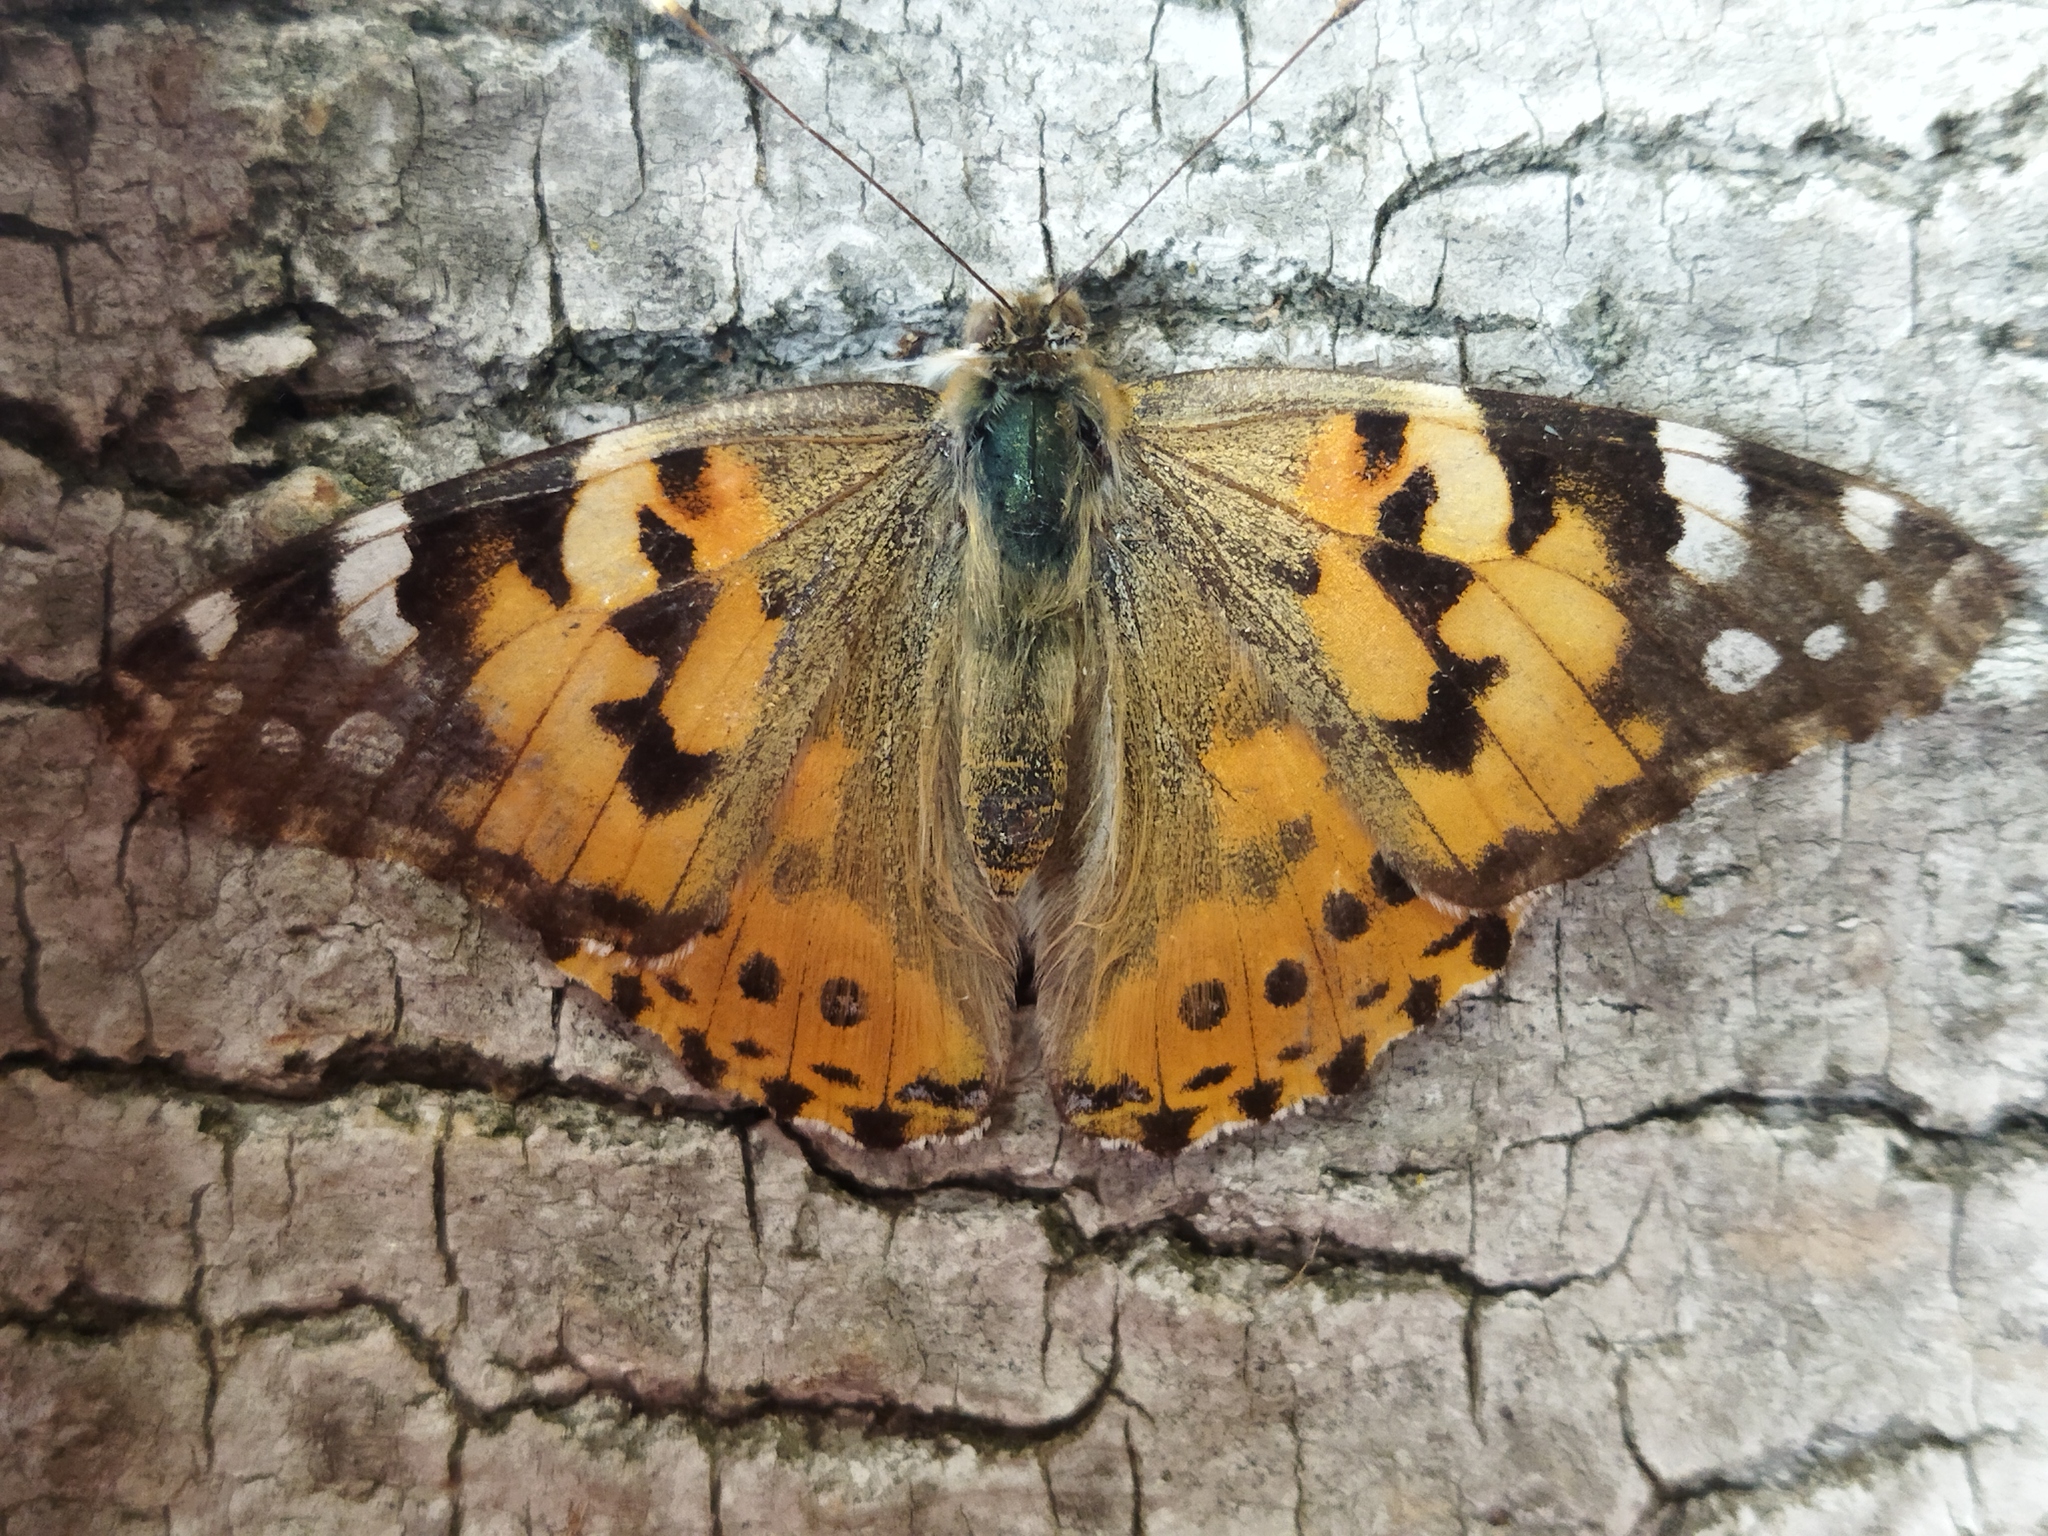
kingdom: Animalia
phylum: Arthropoda
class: Insecta
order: Lepidoptera
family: Nymphalidae
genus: Vanessa
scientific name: Vanessa cardui
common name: Painted lady
